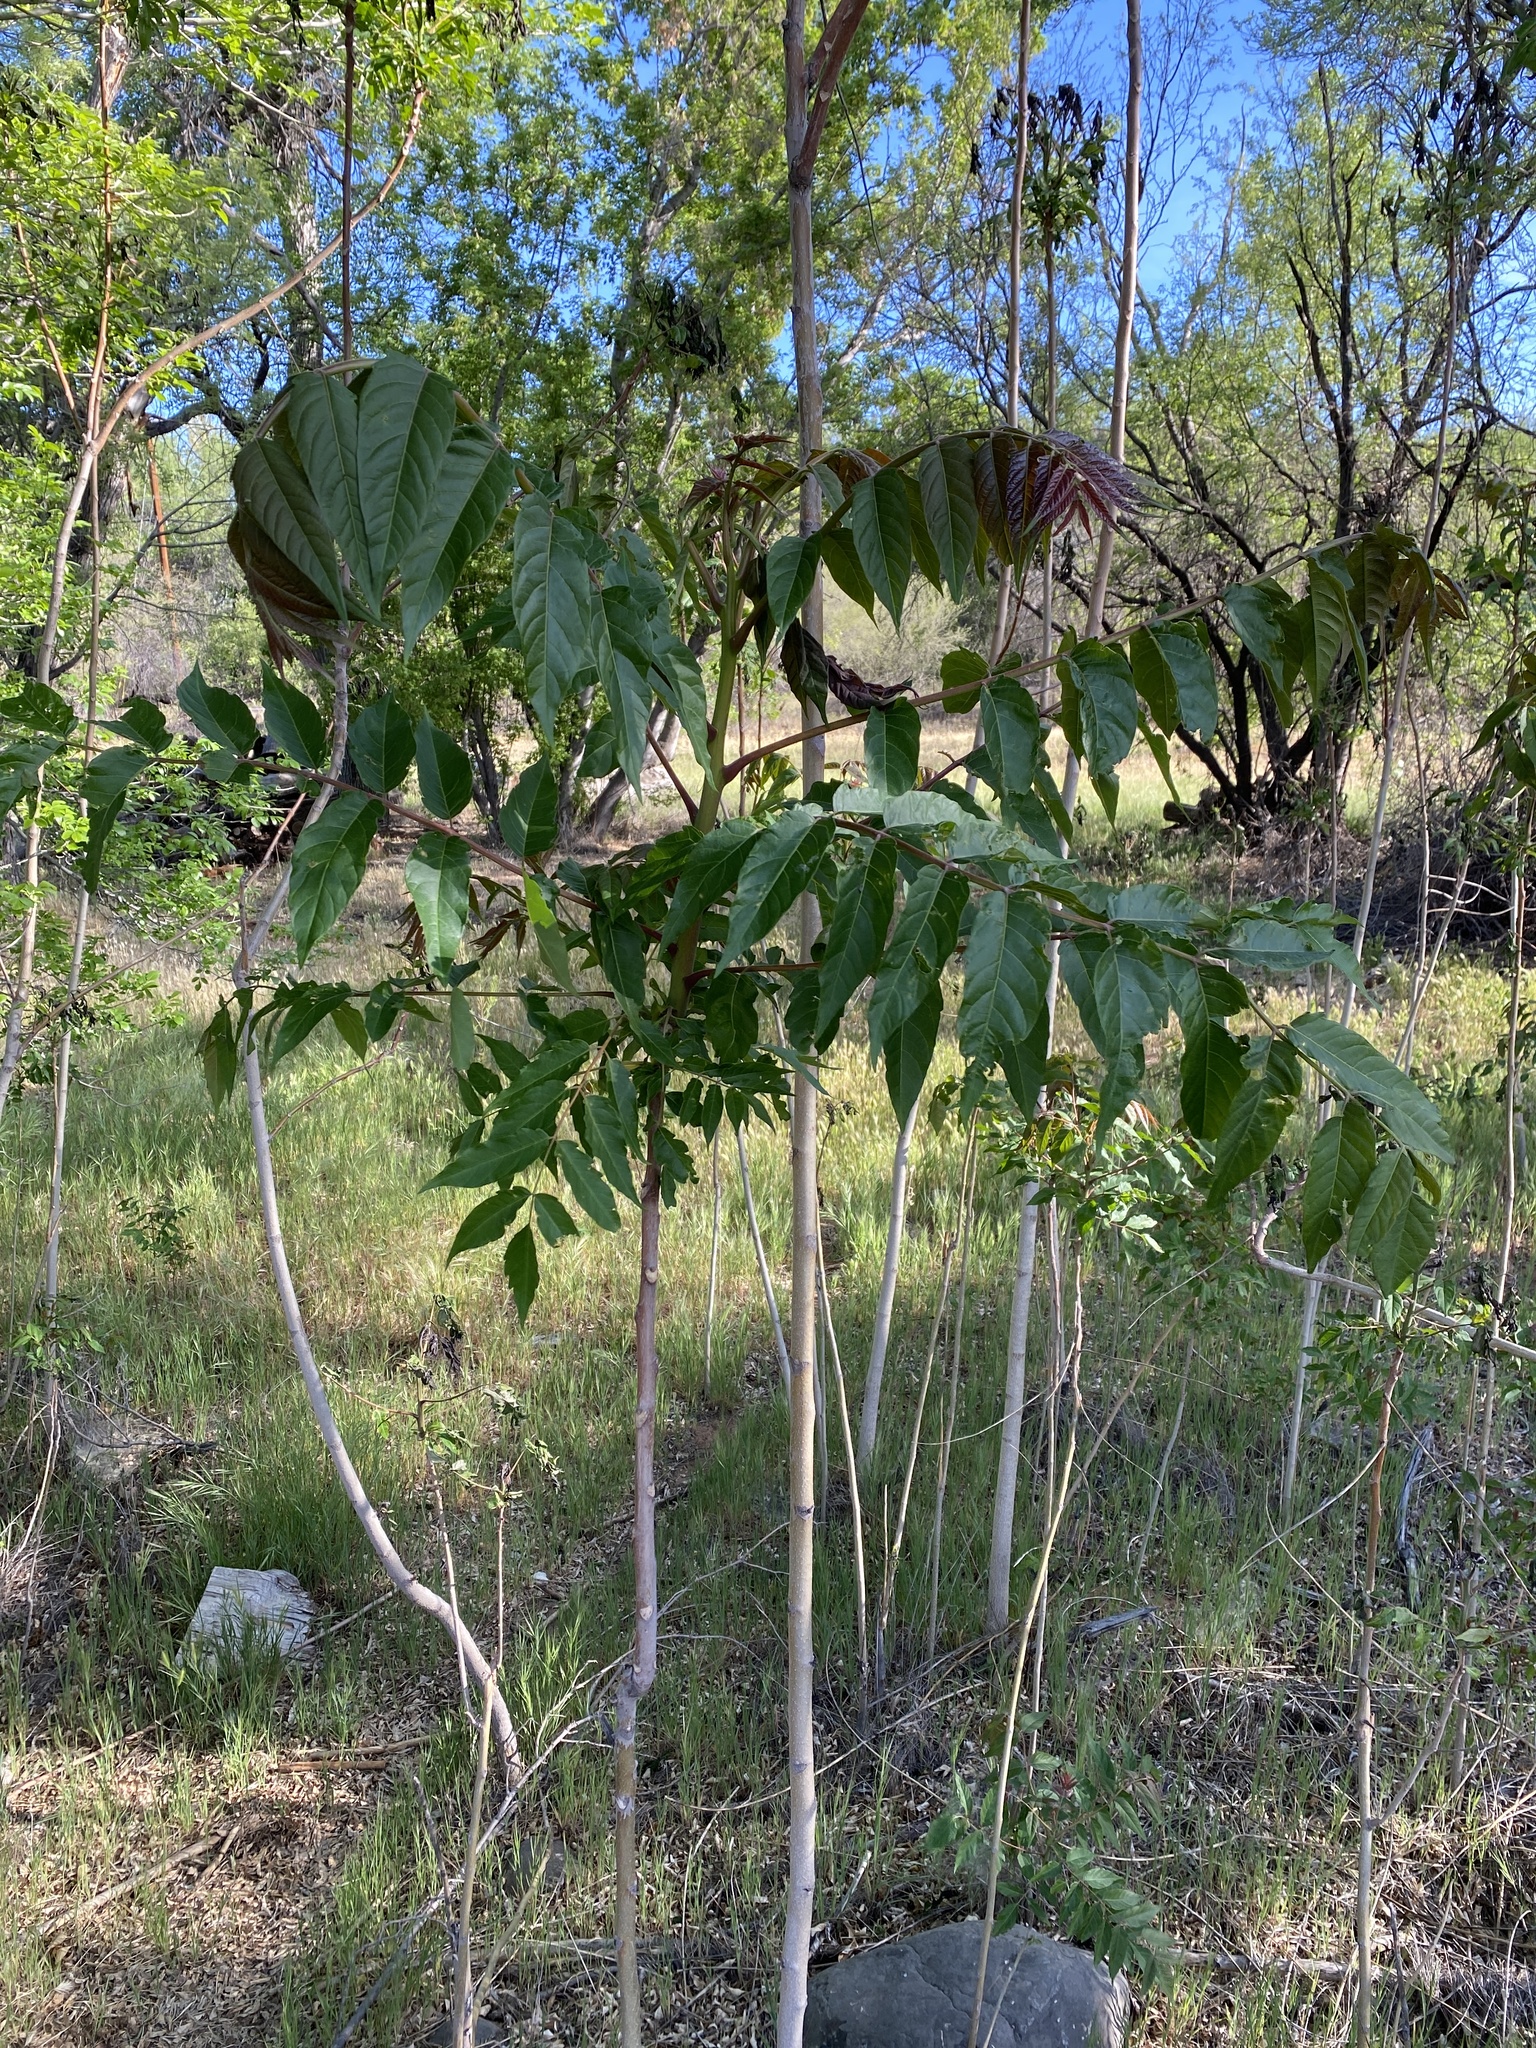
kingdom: Plantae
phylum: Tracheophyta
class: Magnoliopsida
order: Sapindales
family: Simaroubaceae
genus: Ailanthus
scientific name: Ailanthus altissima
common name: Tree-of-heaven
